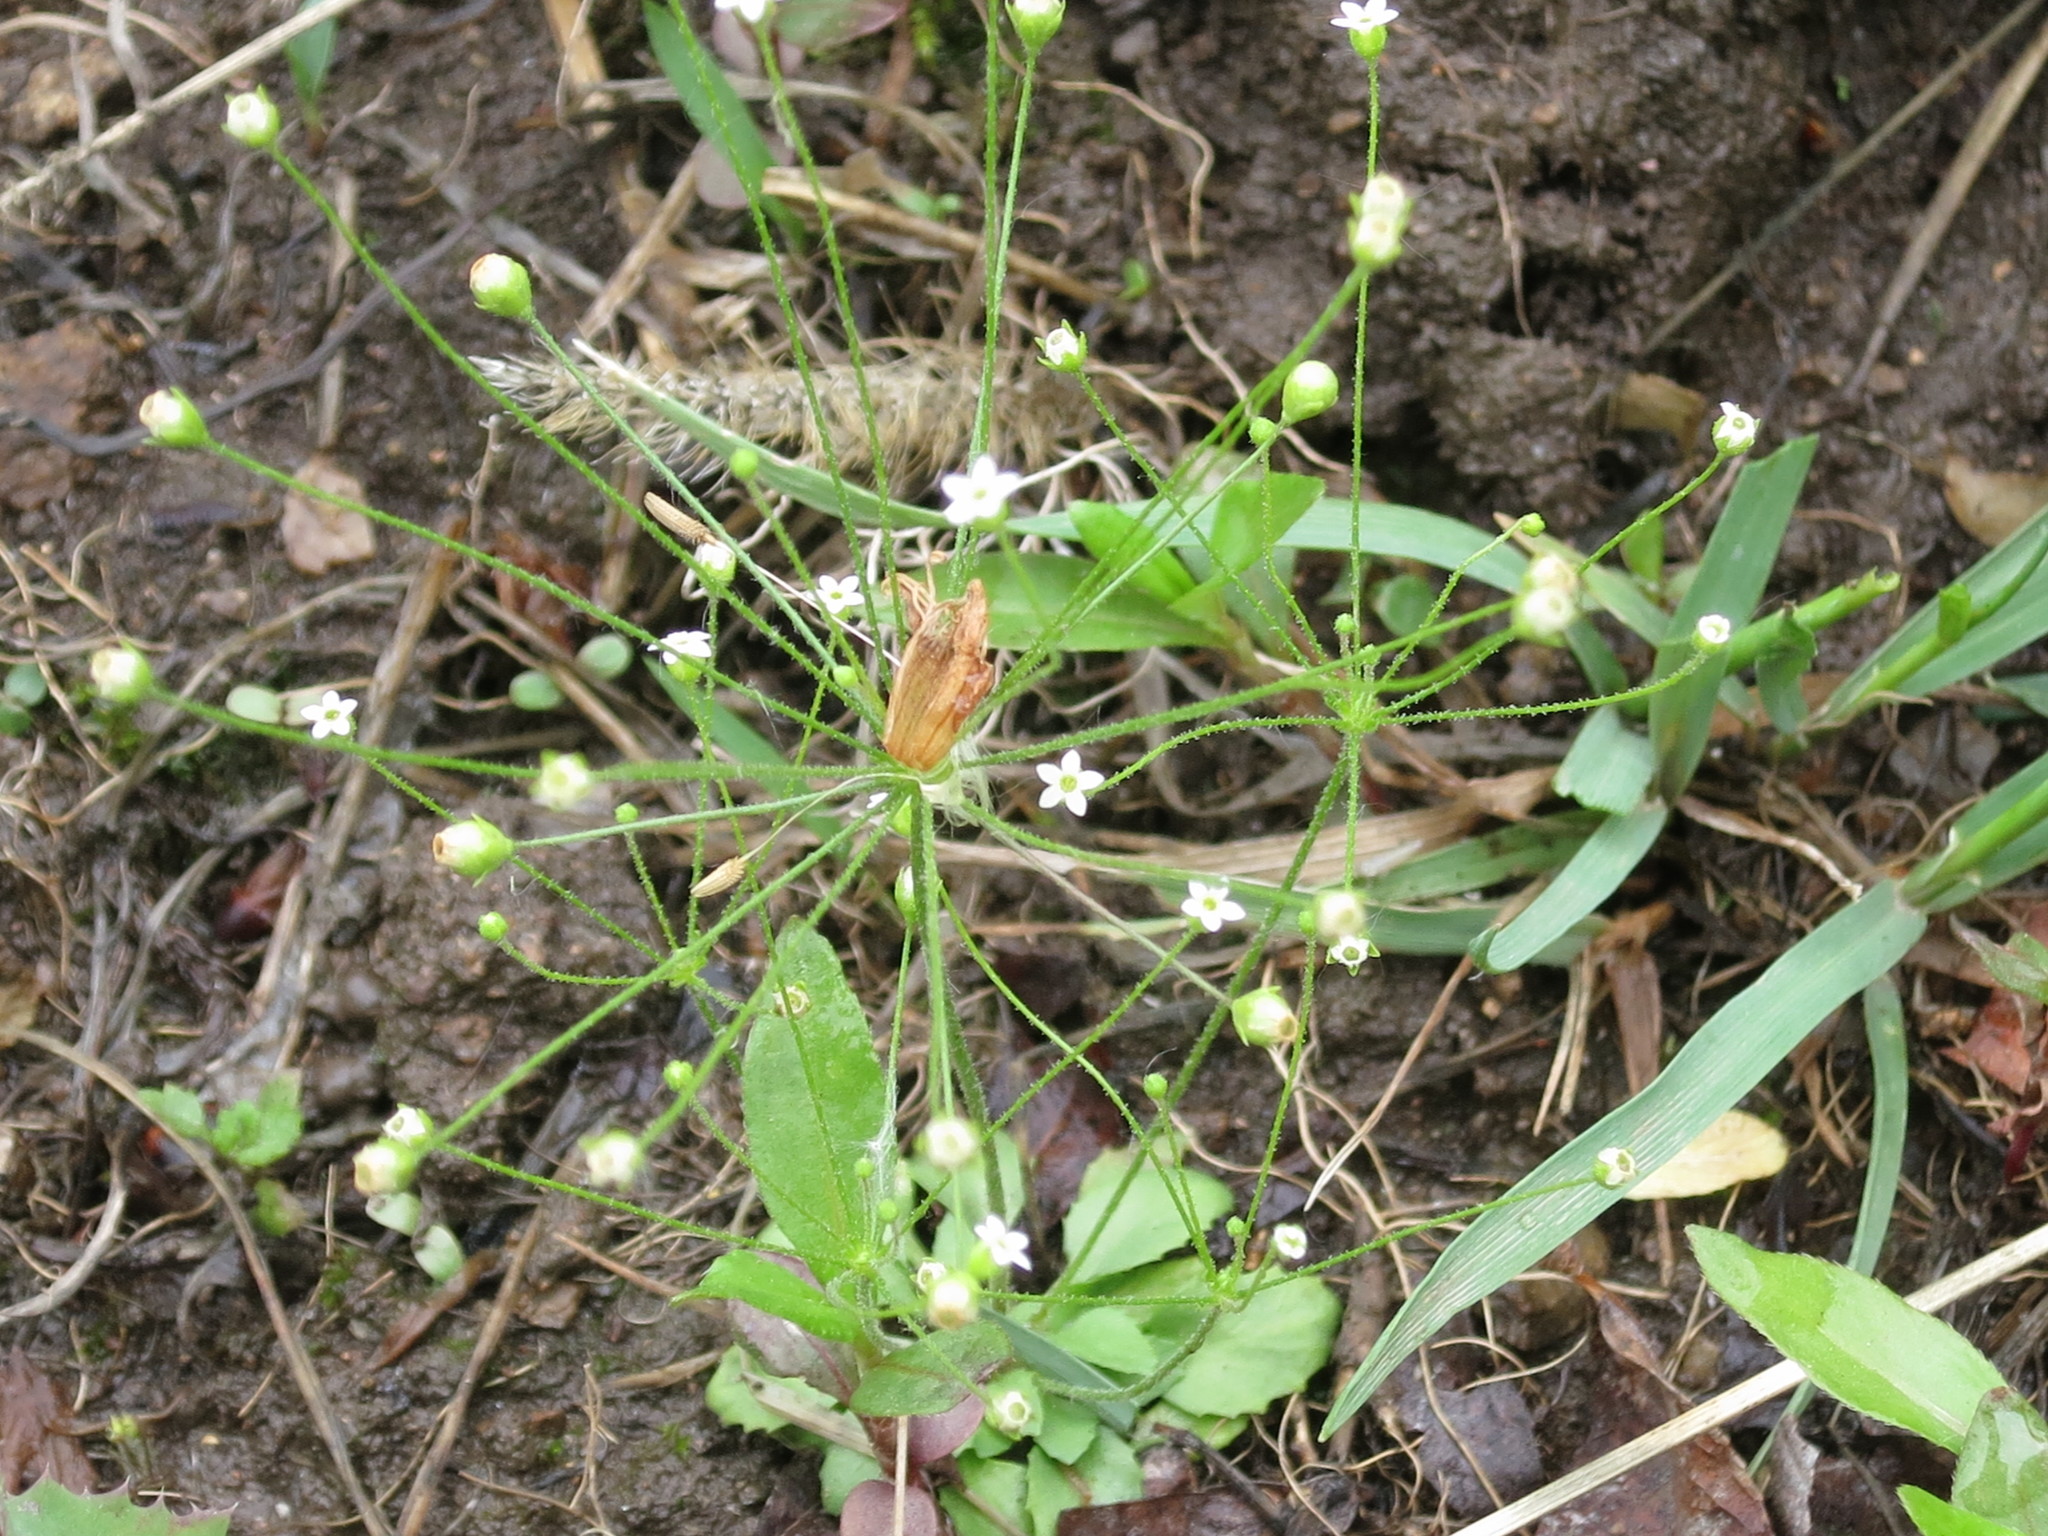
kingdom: Plantae
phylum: Tracheophyta
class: Magnoliopsida
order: Ericales
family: Primulaceae
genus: Androsace
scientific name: Androsace filiformis
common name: Filiform rock jasmine
